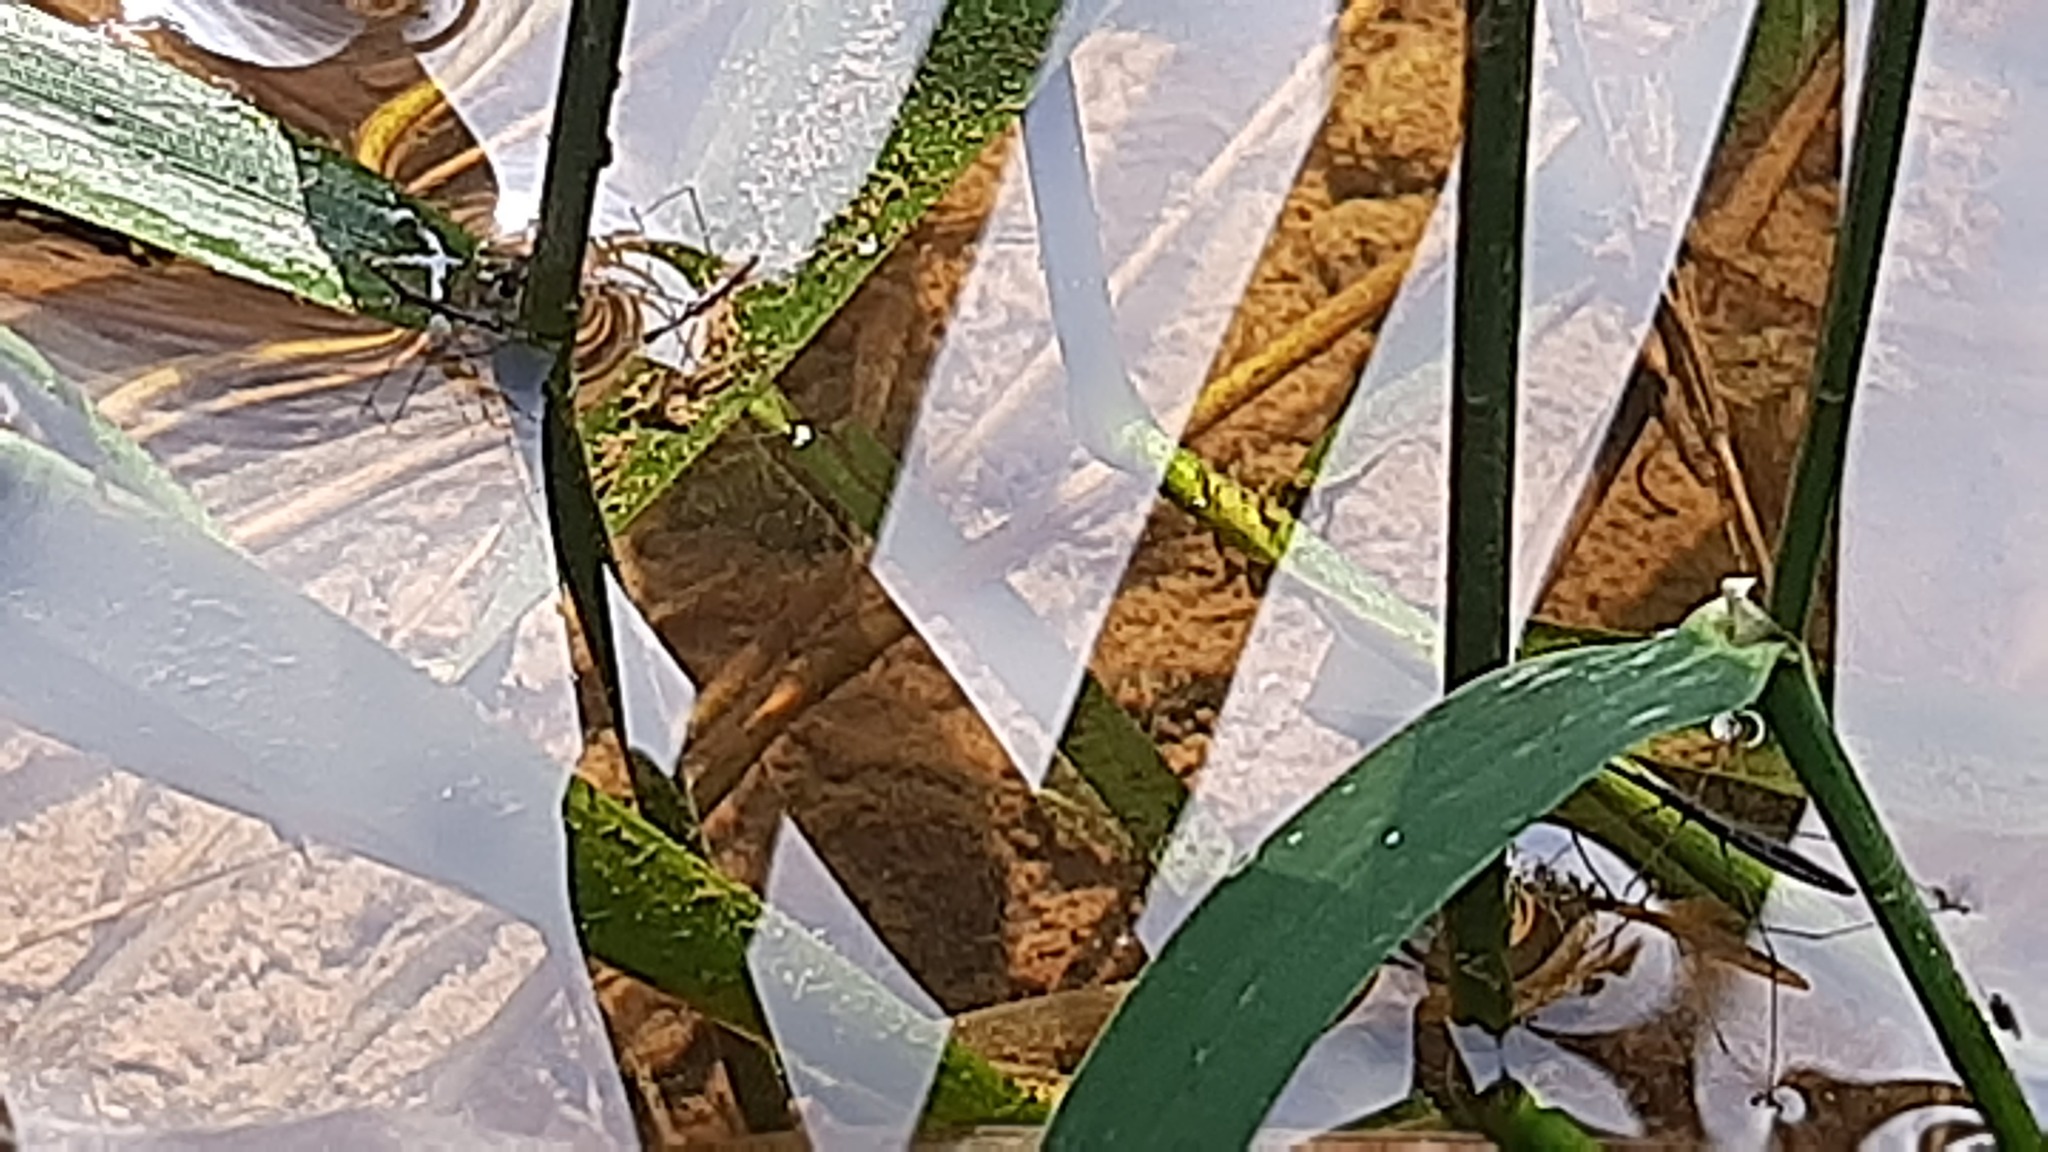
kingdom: Animalia
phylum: Arthropoda
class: Insecta
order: Hemiptera
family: Hydrometridae
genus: Hydrometra
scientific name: Hydrometra
